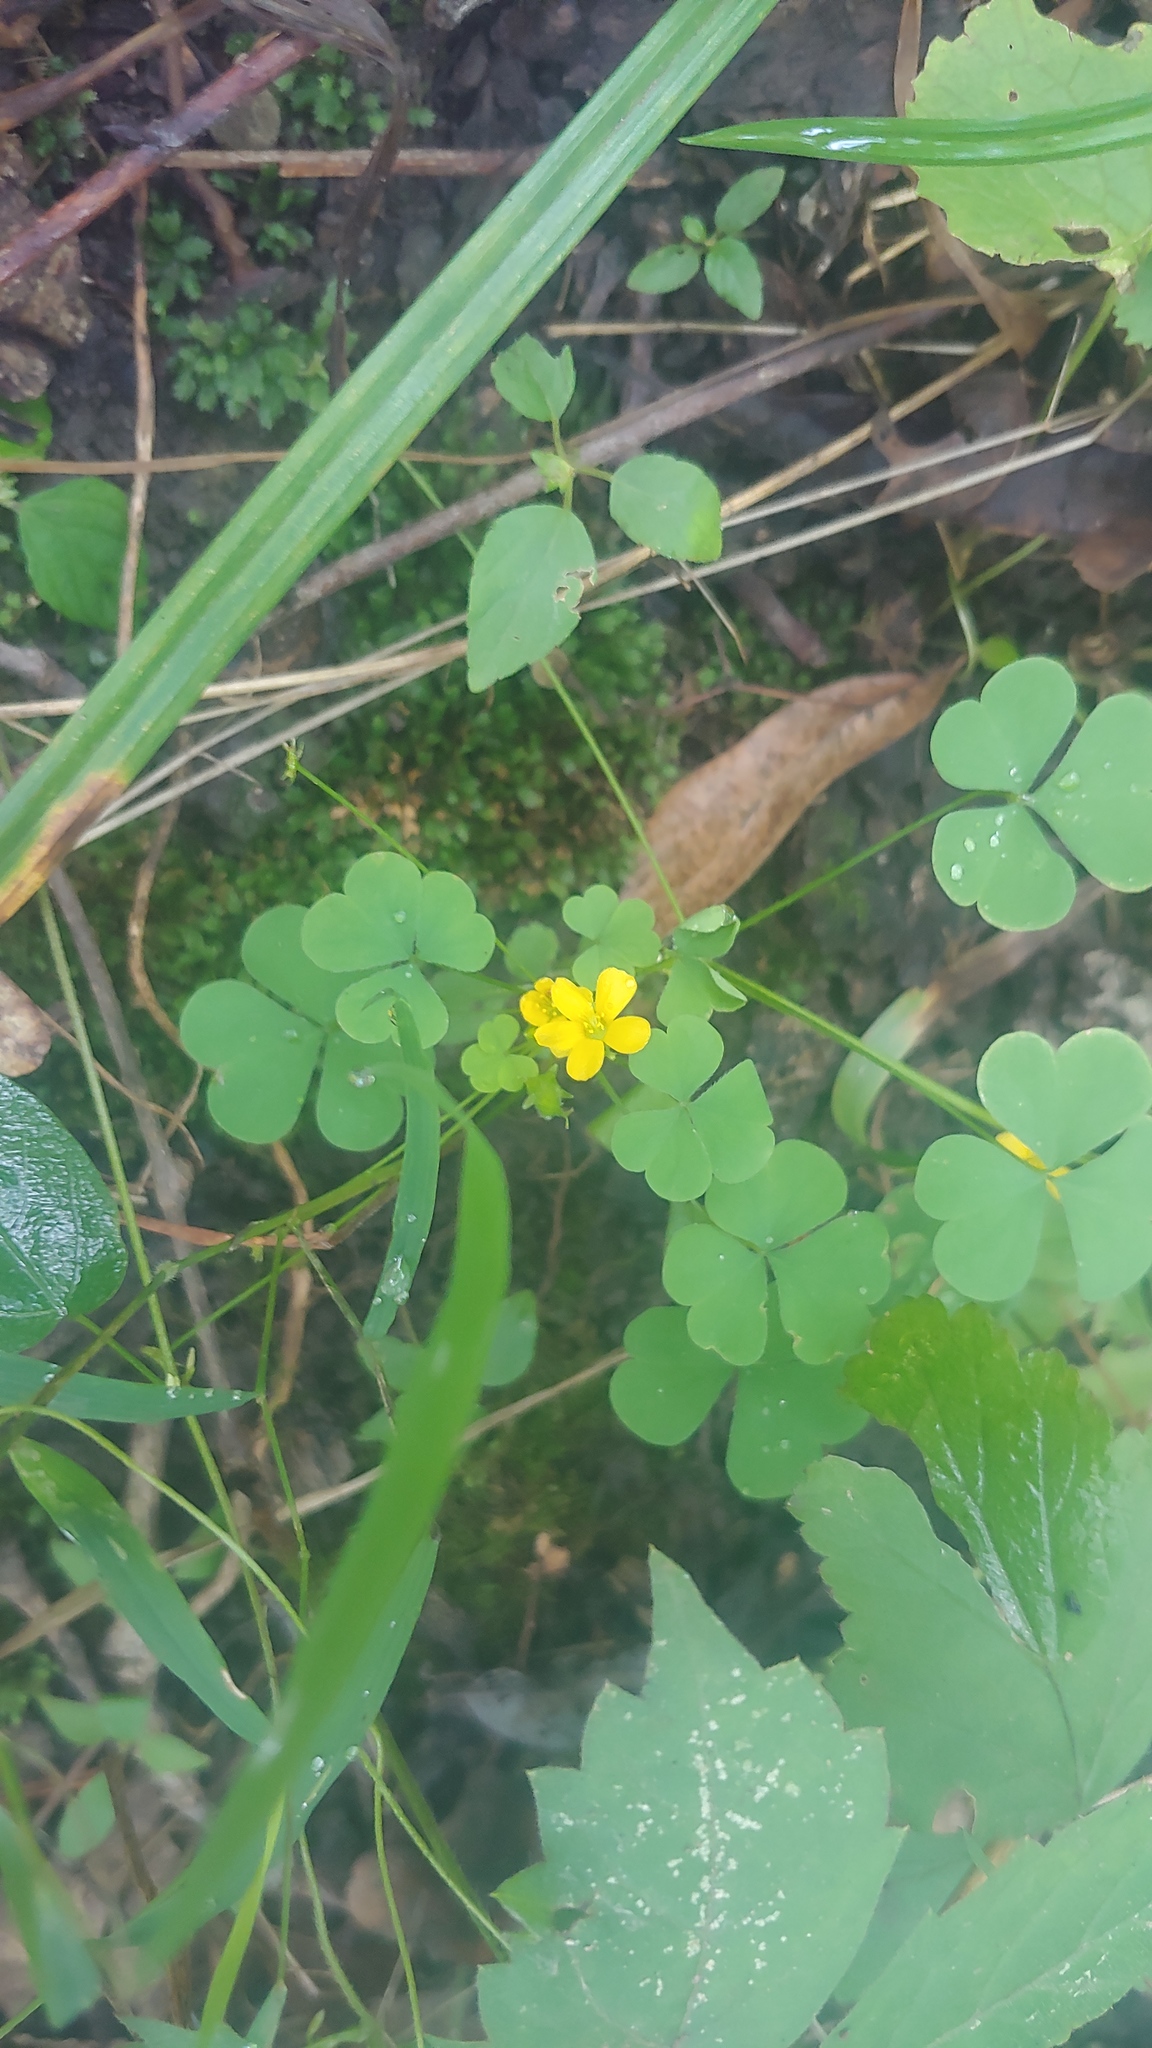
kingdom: Plantae
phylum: Tracheophyta
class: Magnoliopsida
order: Oxalidales
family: Oxalidaceae
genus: Oxalis
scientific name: Oxalis dillenii
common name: Sussex yellow-sorrel
